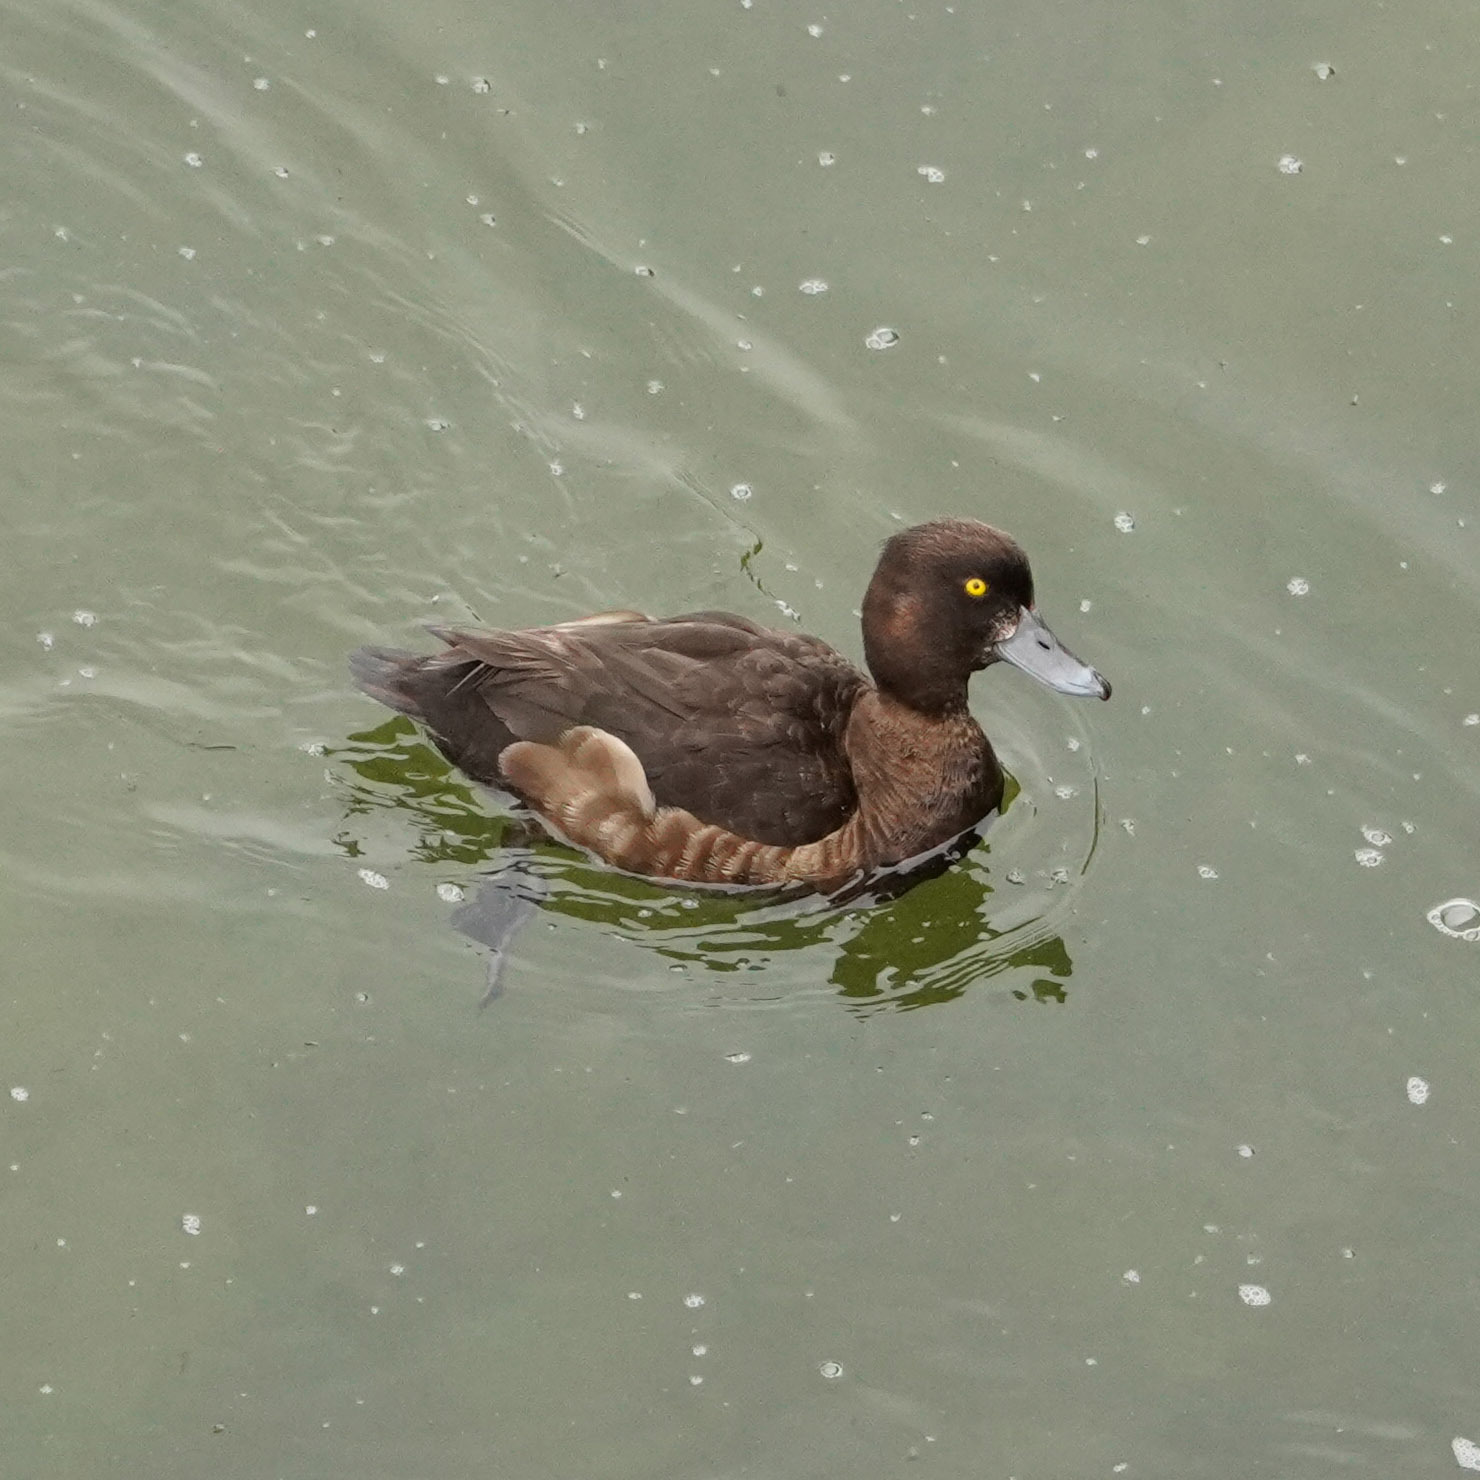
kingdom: Animalia
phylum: Chordata
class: Aves
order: Anseriformes
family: Anatidae
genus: Aythya
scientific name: Aythya fuligula
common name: Tufted duck
